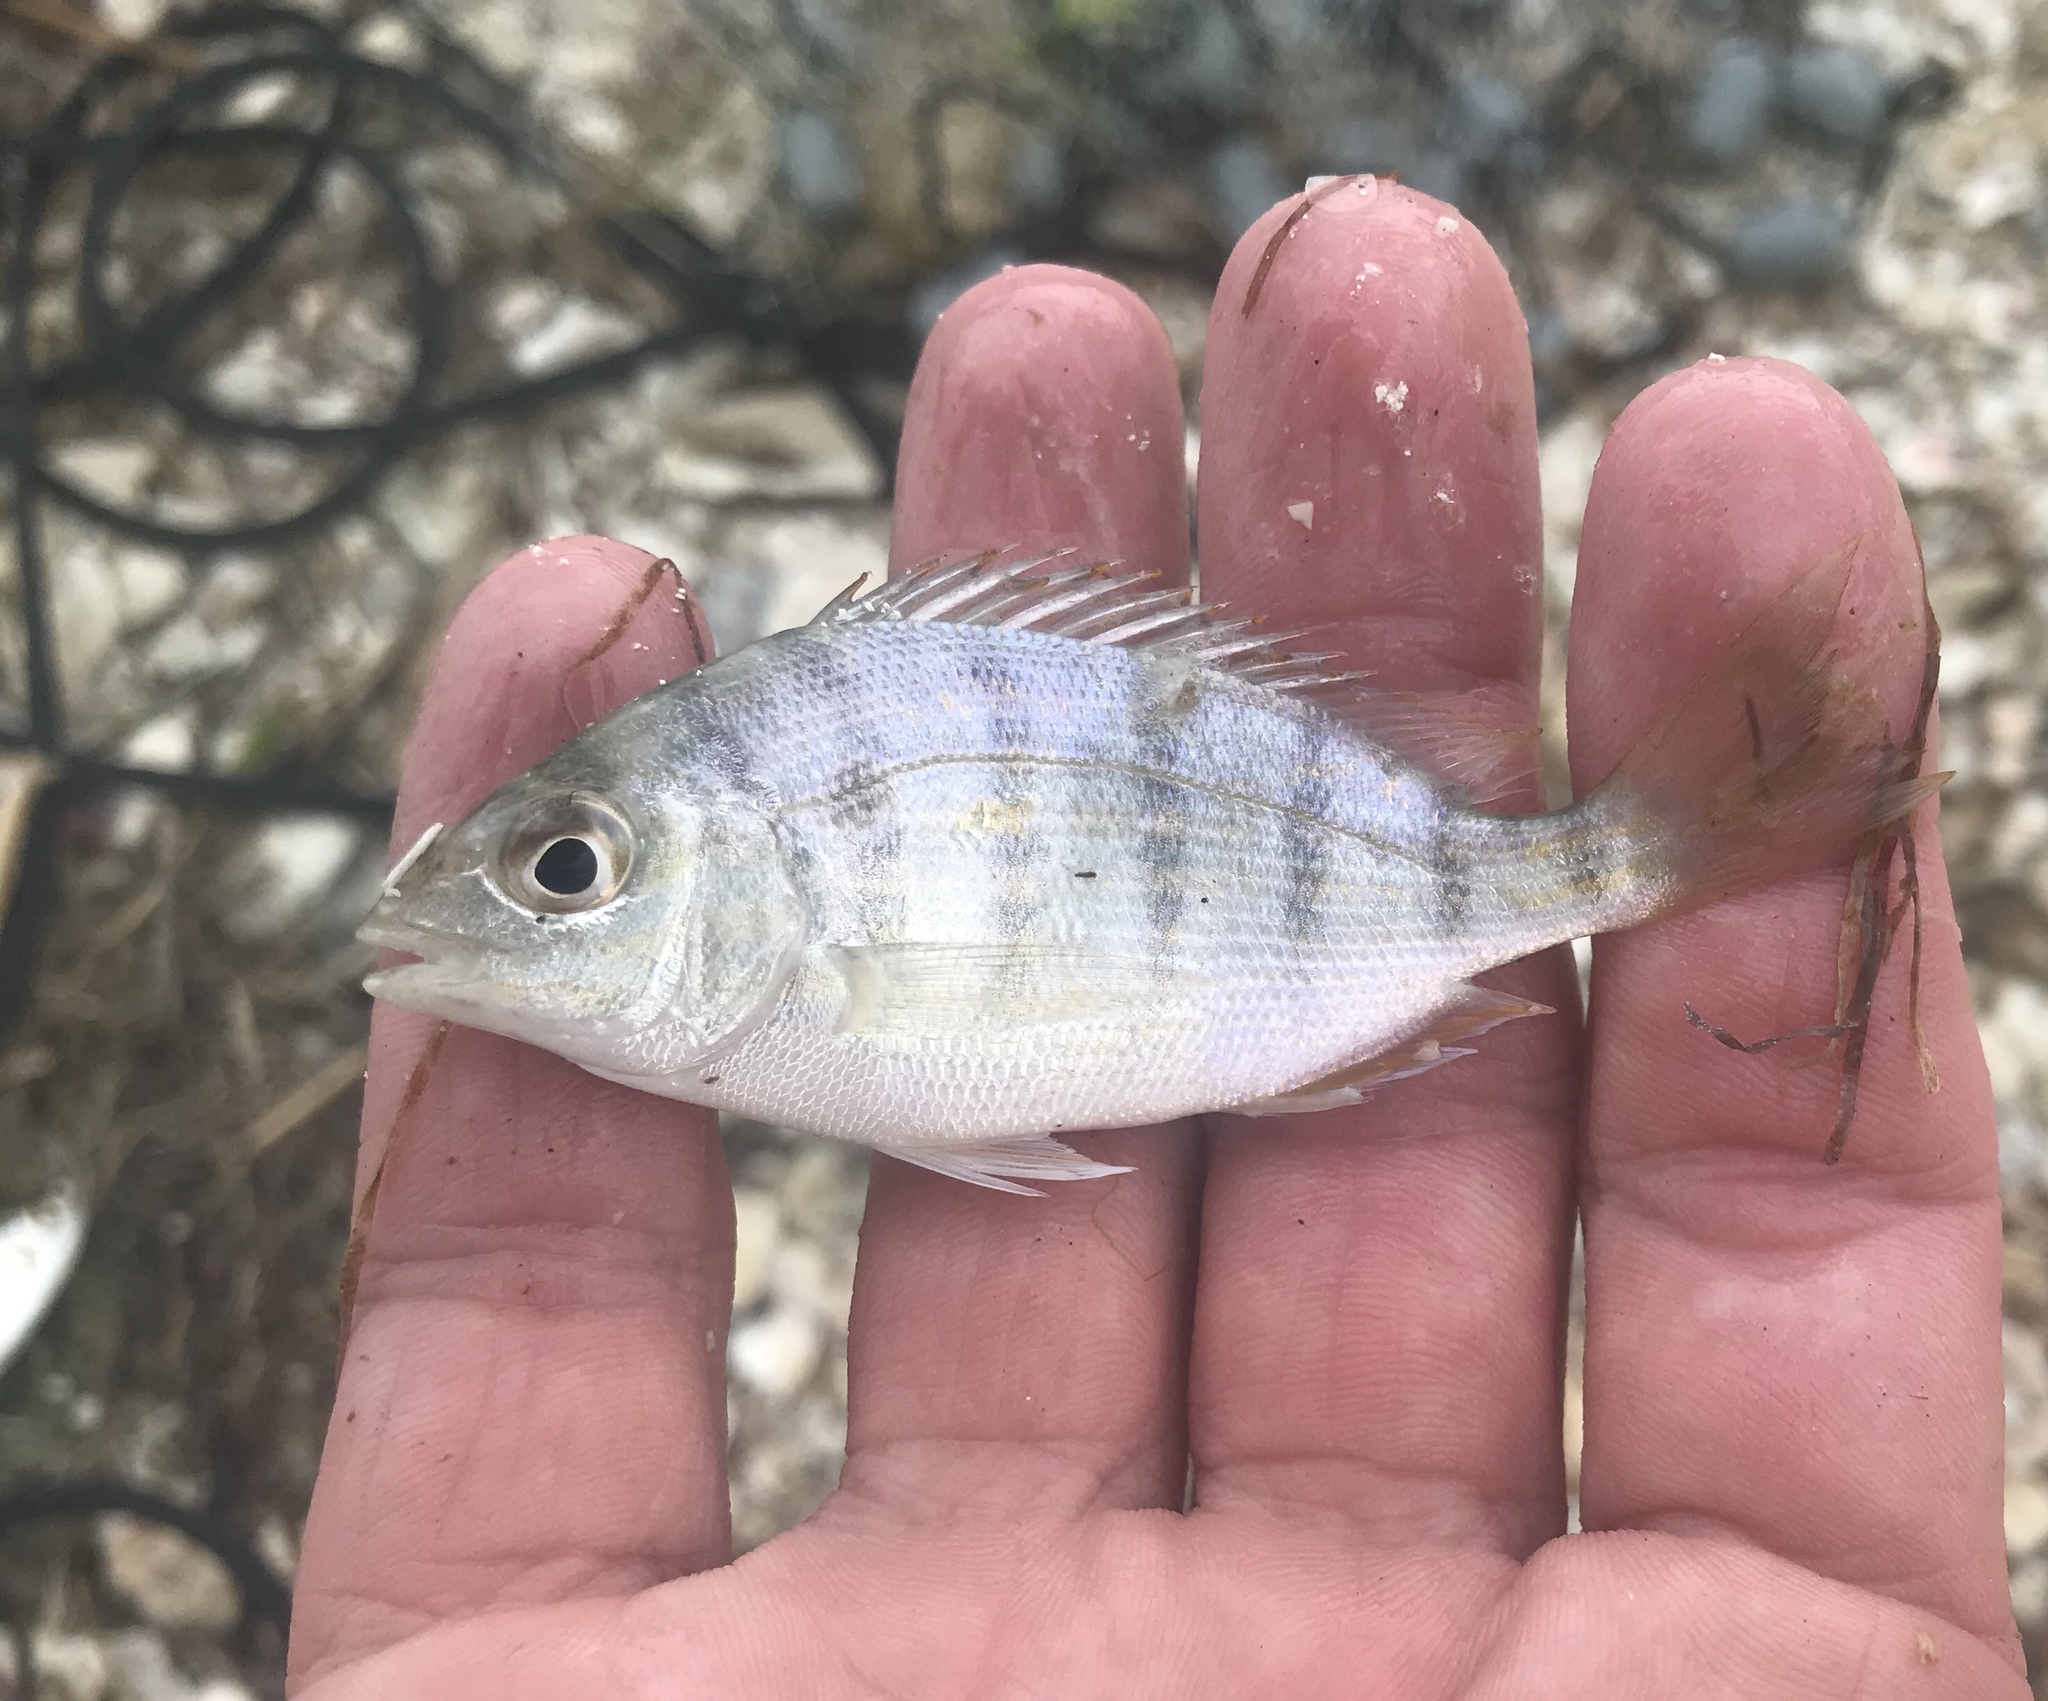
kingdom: Animalia
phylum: Chordata
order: Perciformes
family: Sparidae
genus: Lagodon
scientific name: Lagodon rhomboides
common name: Pinfish
